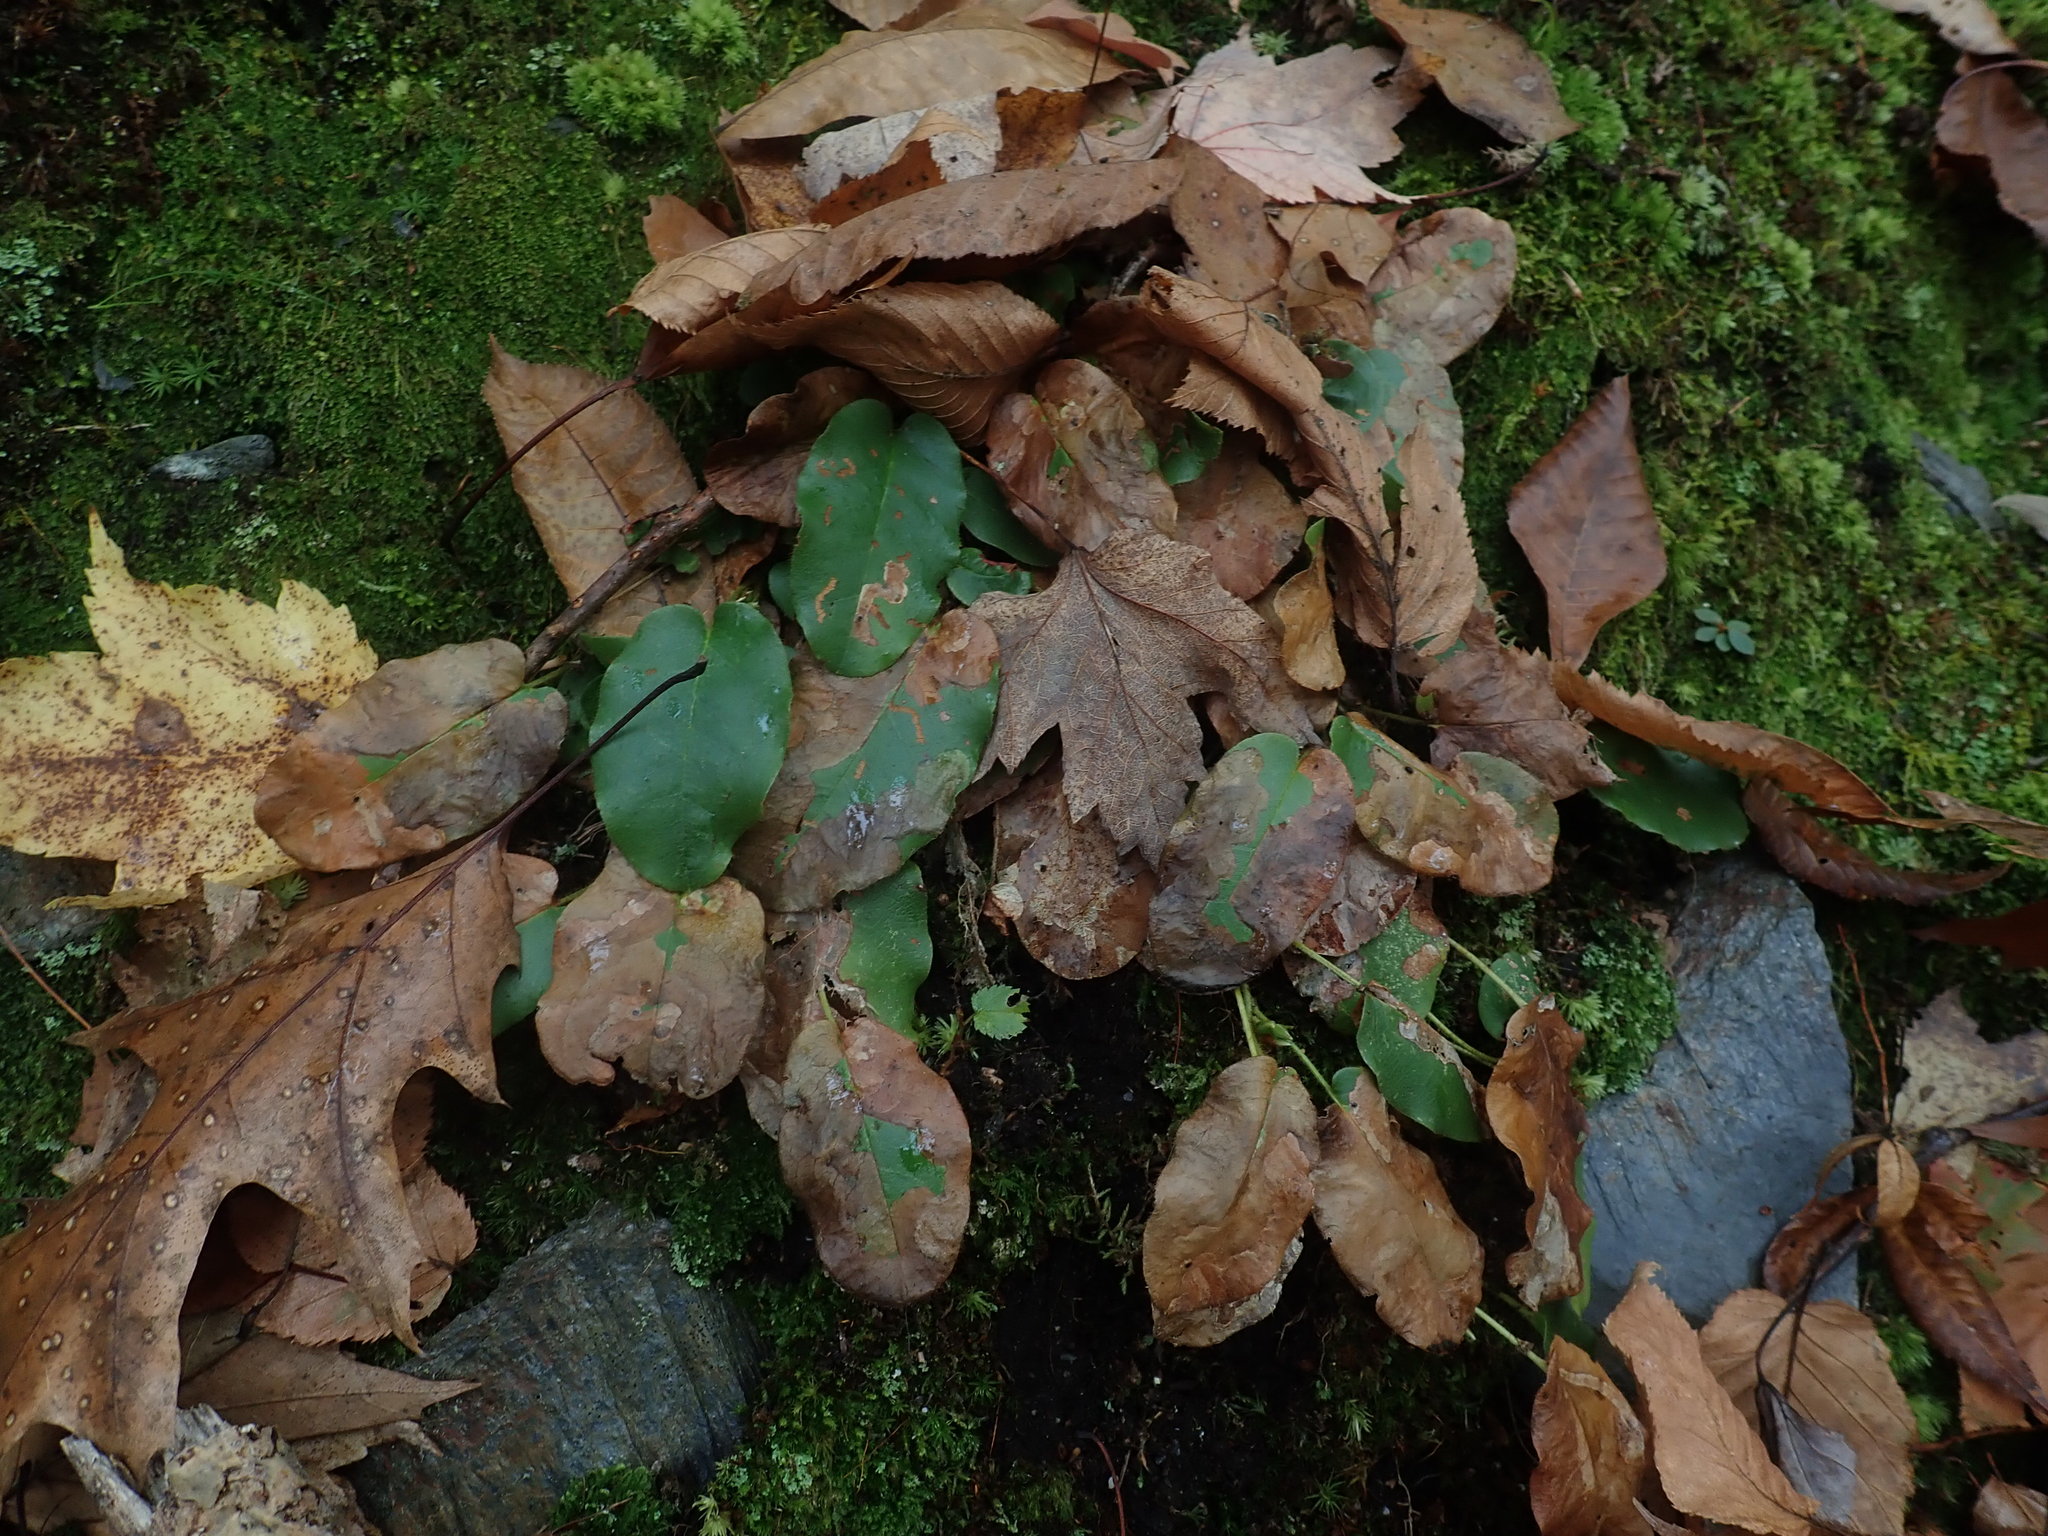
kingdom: Plantae
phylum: Tracheophyta
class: Magnoliopsida
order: Ericales
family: Ericaceae
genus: Epigaea
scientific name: Epigaea repens
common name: Gravelroot
